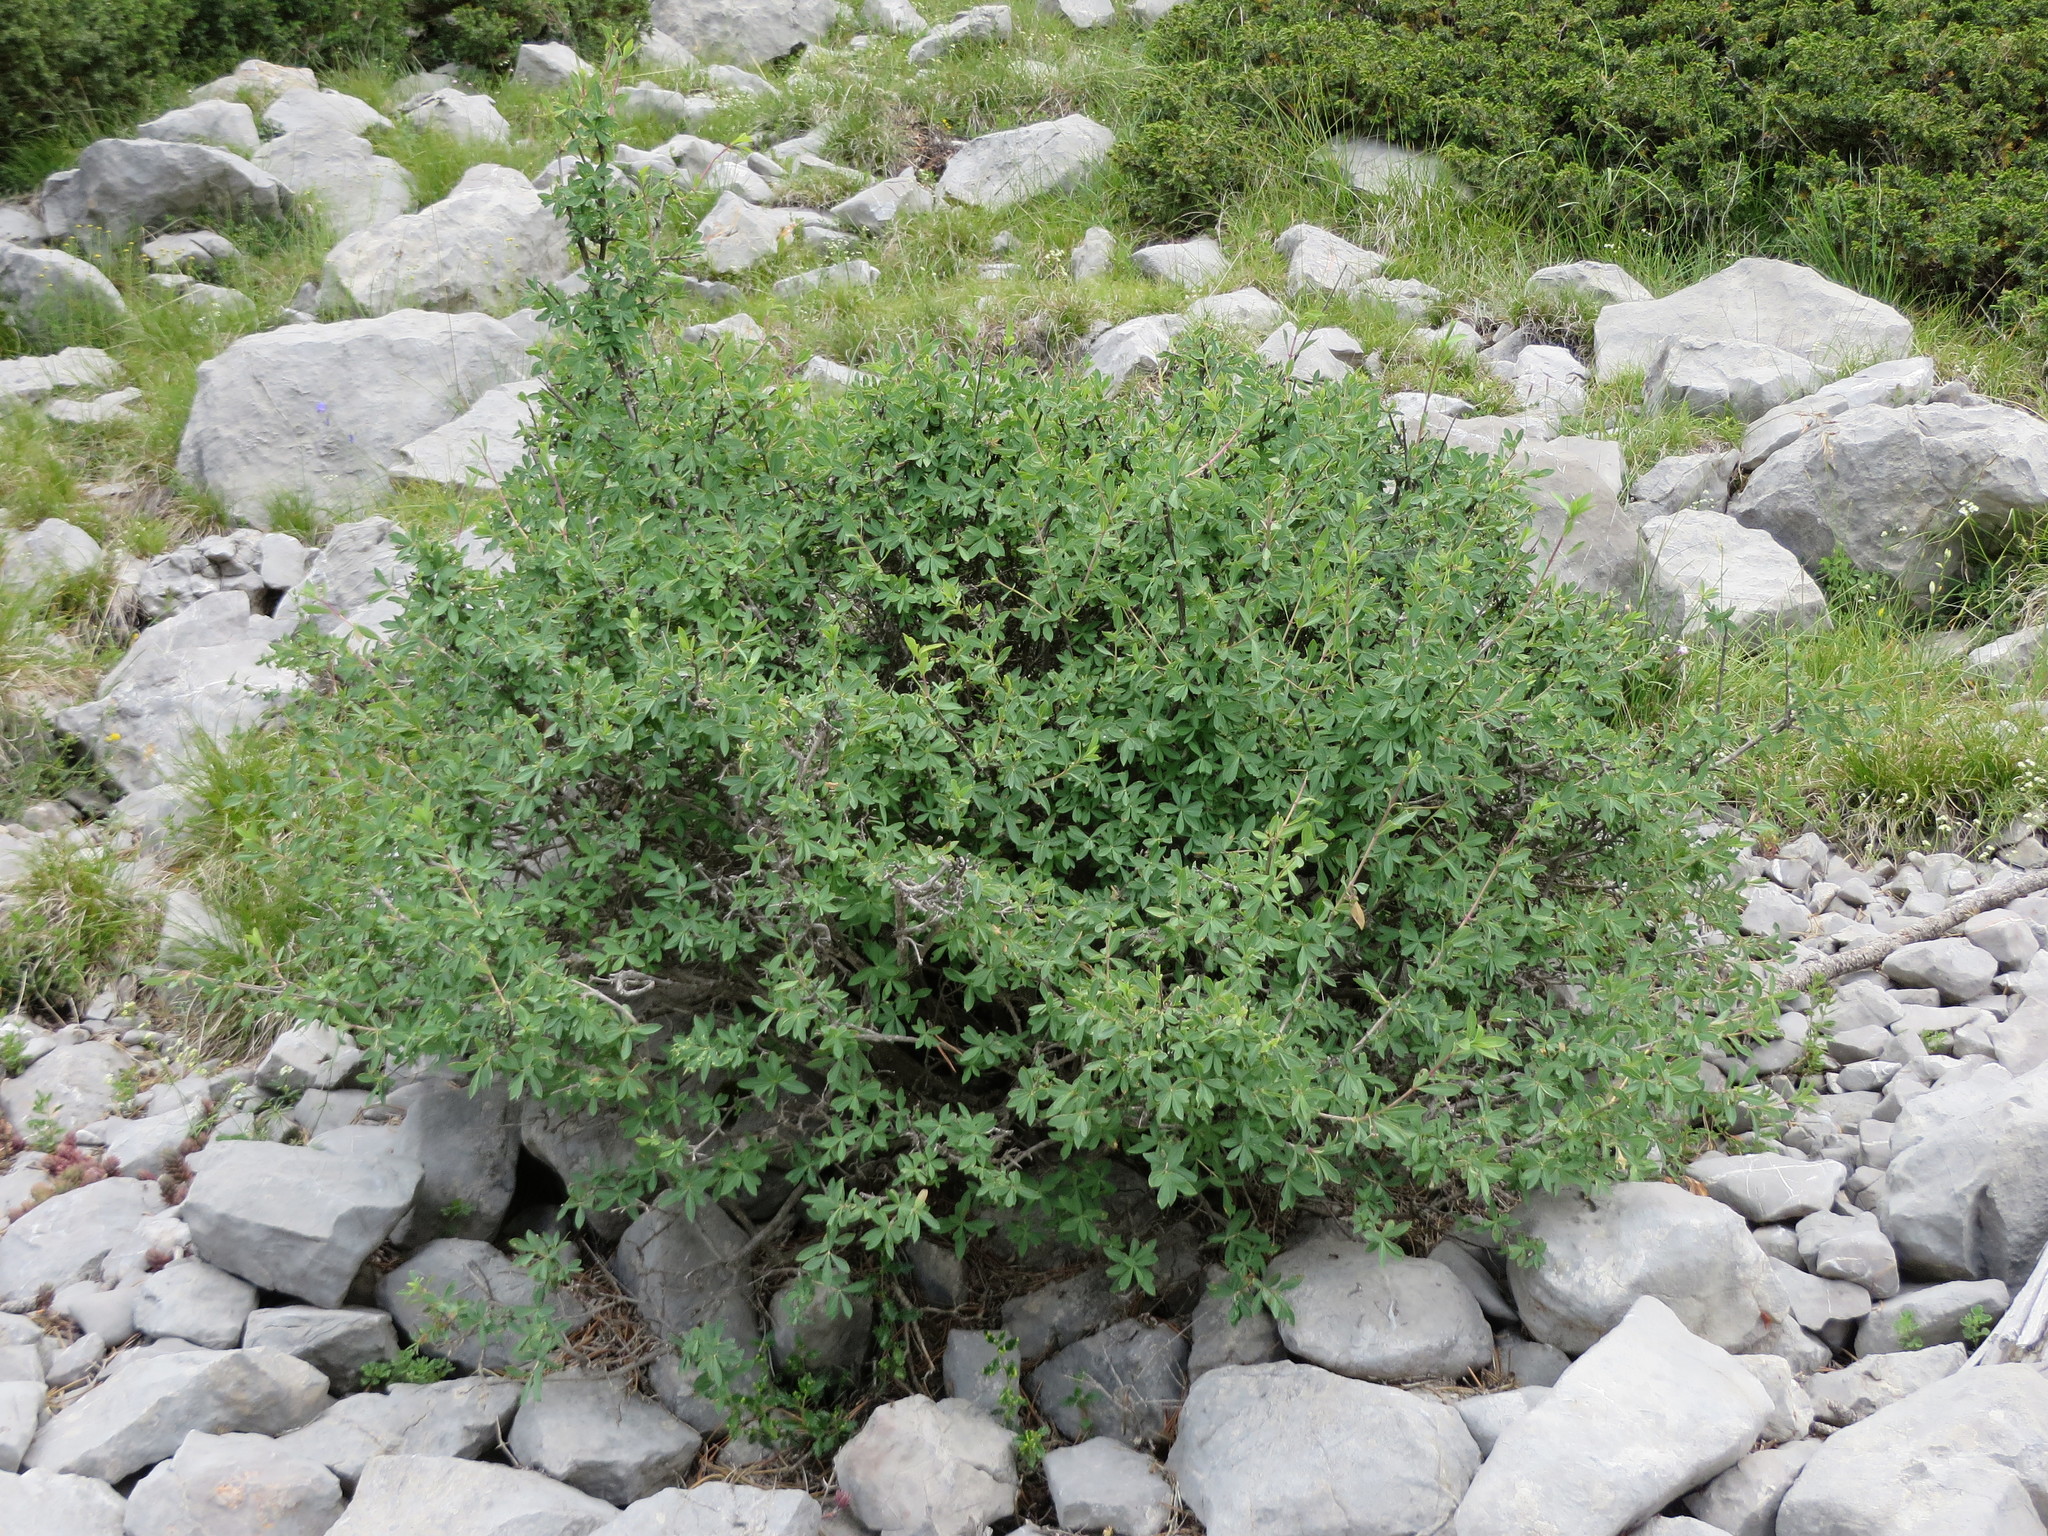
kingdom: Plantae
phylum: Tracheophyta
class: Magnoliopsida
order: Dipsacales
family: Caprifoliaceae
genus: Lonicera
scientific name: Lonicera pyrenaica
